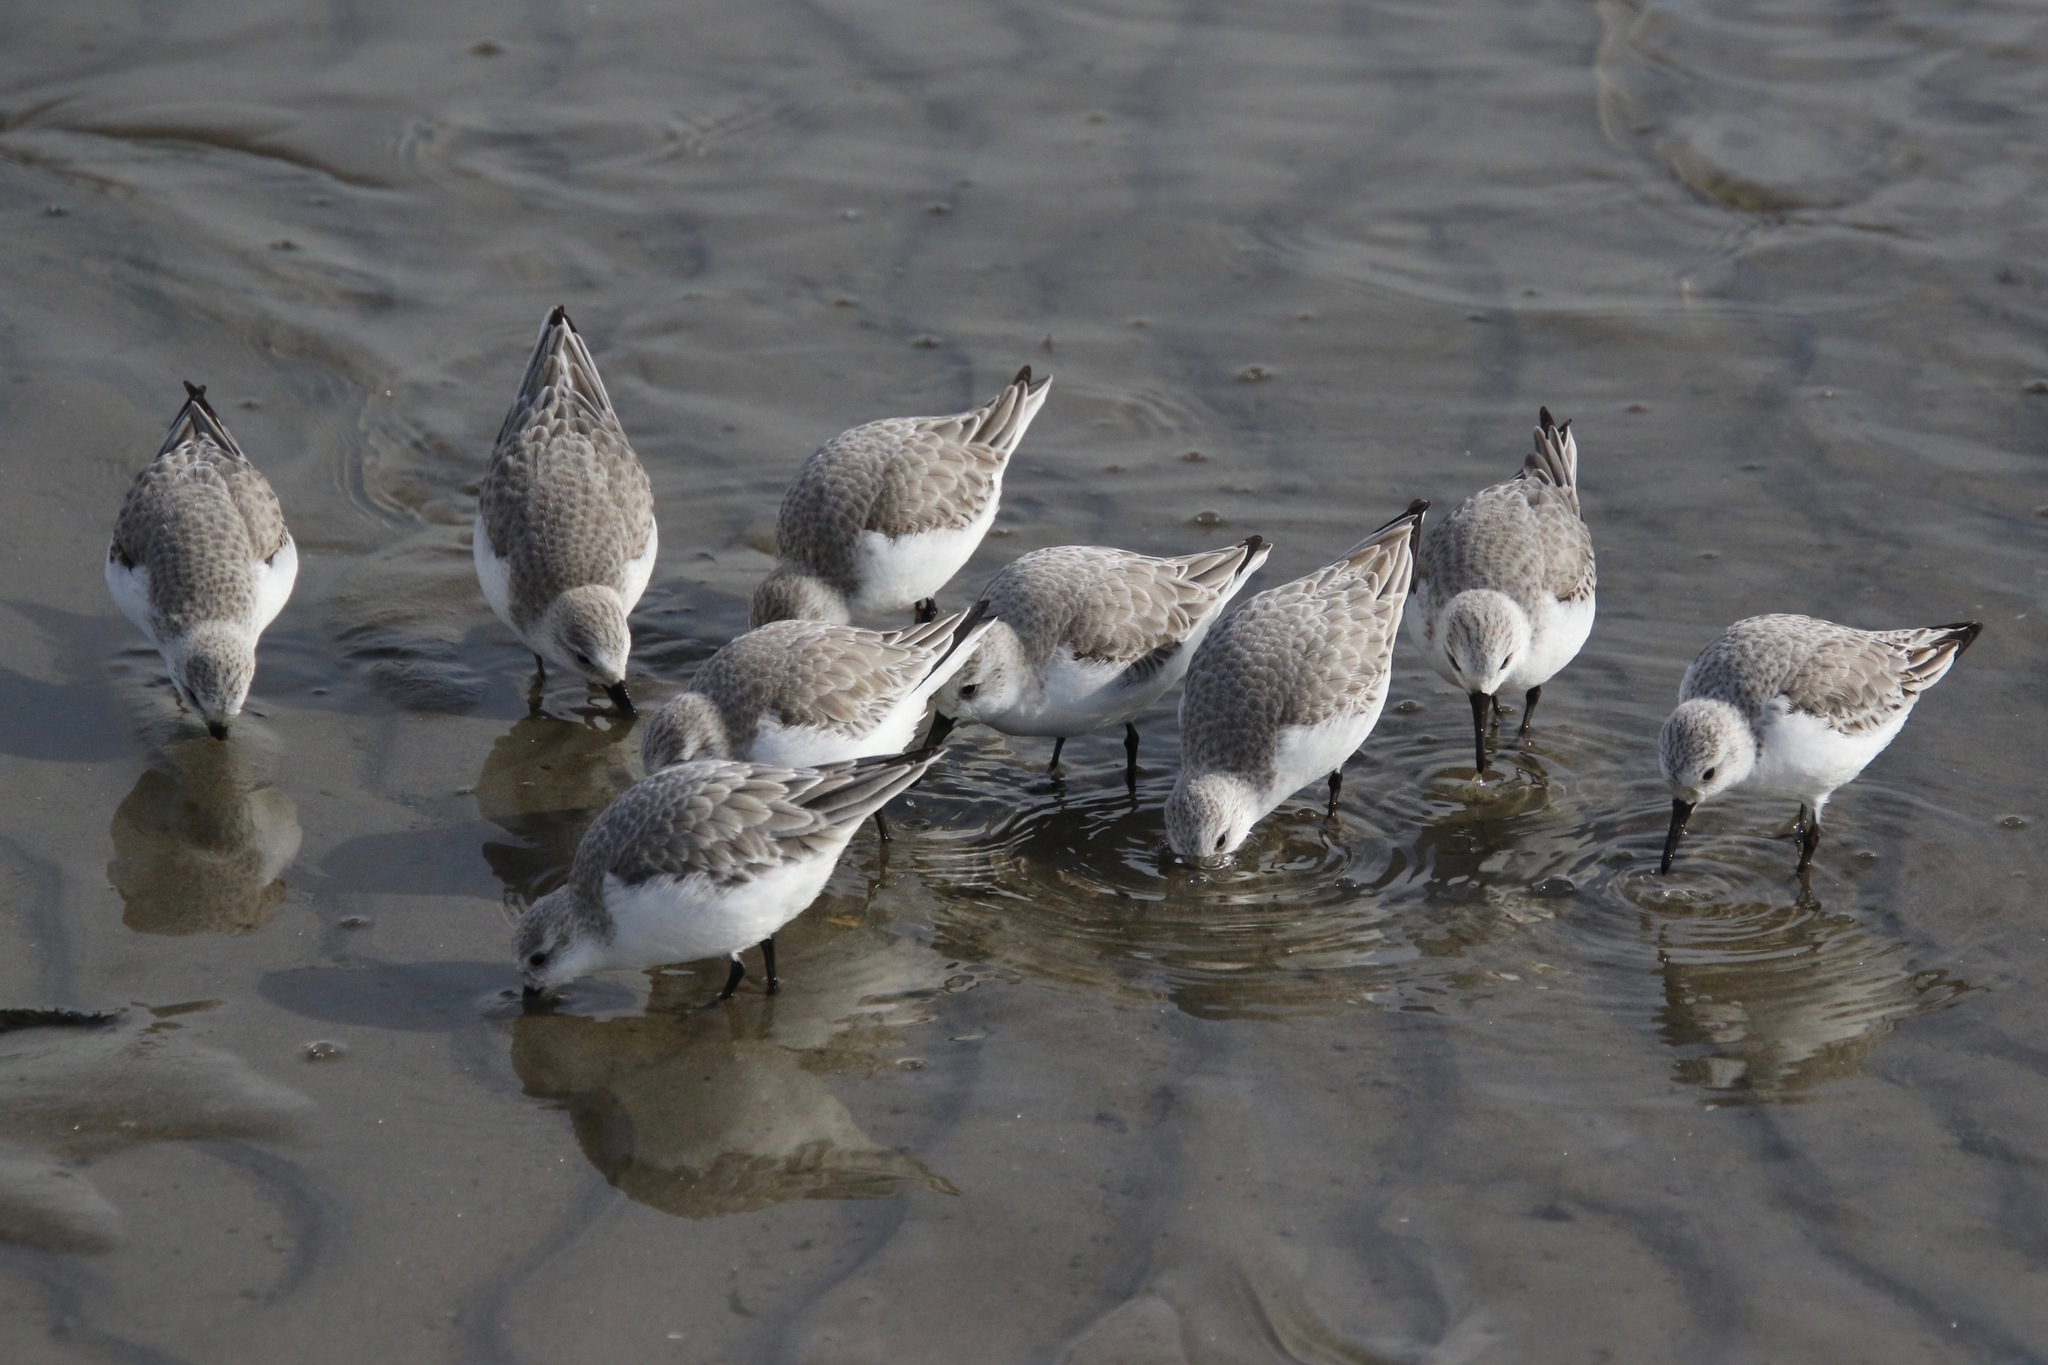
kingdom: Animalia
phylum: Chordata
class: Aves
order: Charadriiformes
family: Scolopacidae
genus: Calidris
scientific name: Calidris alba
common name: Sanderling
